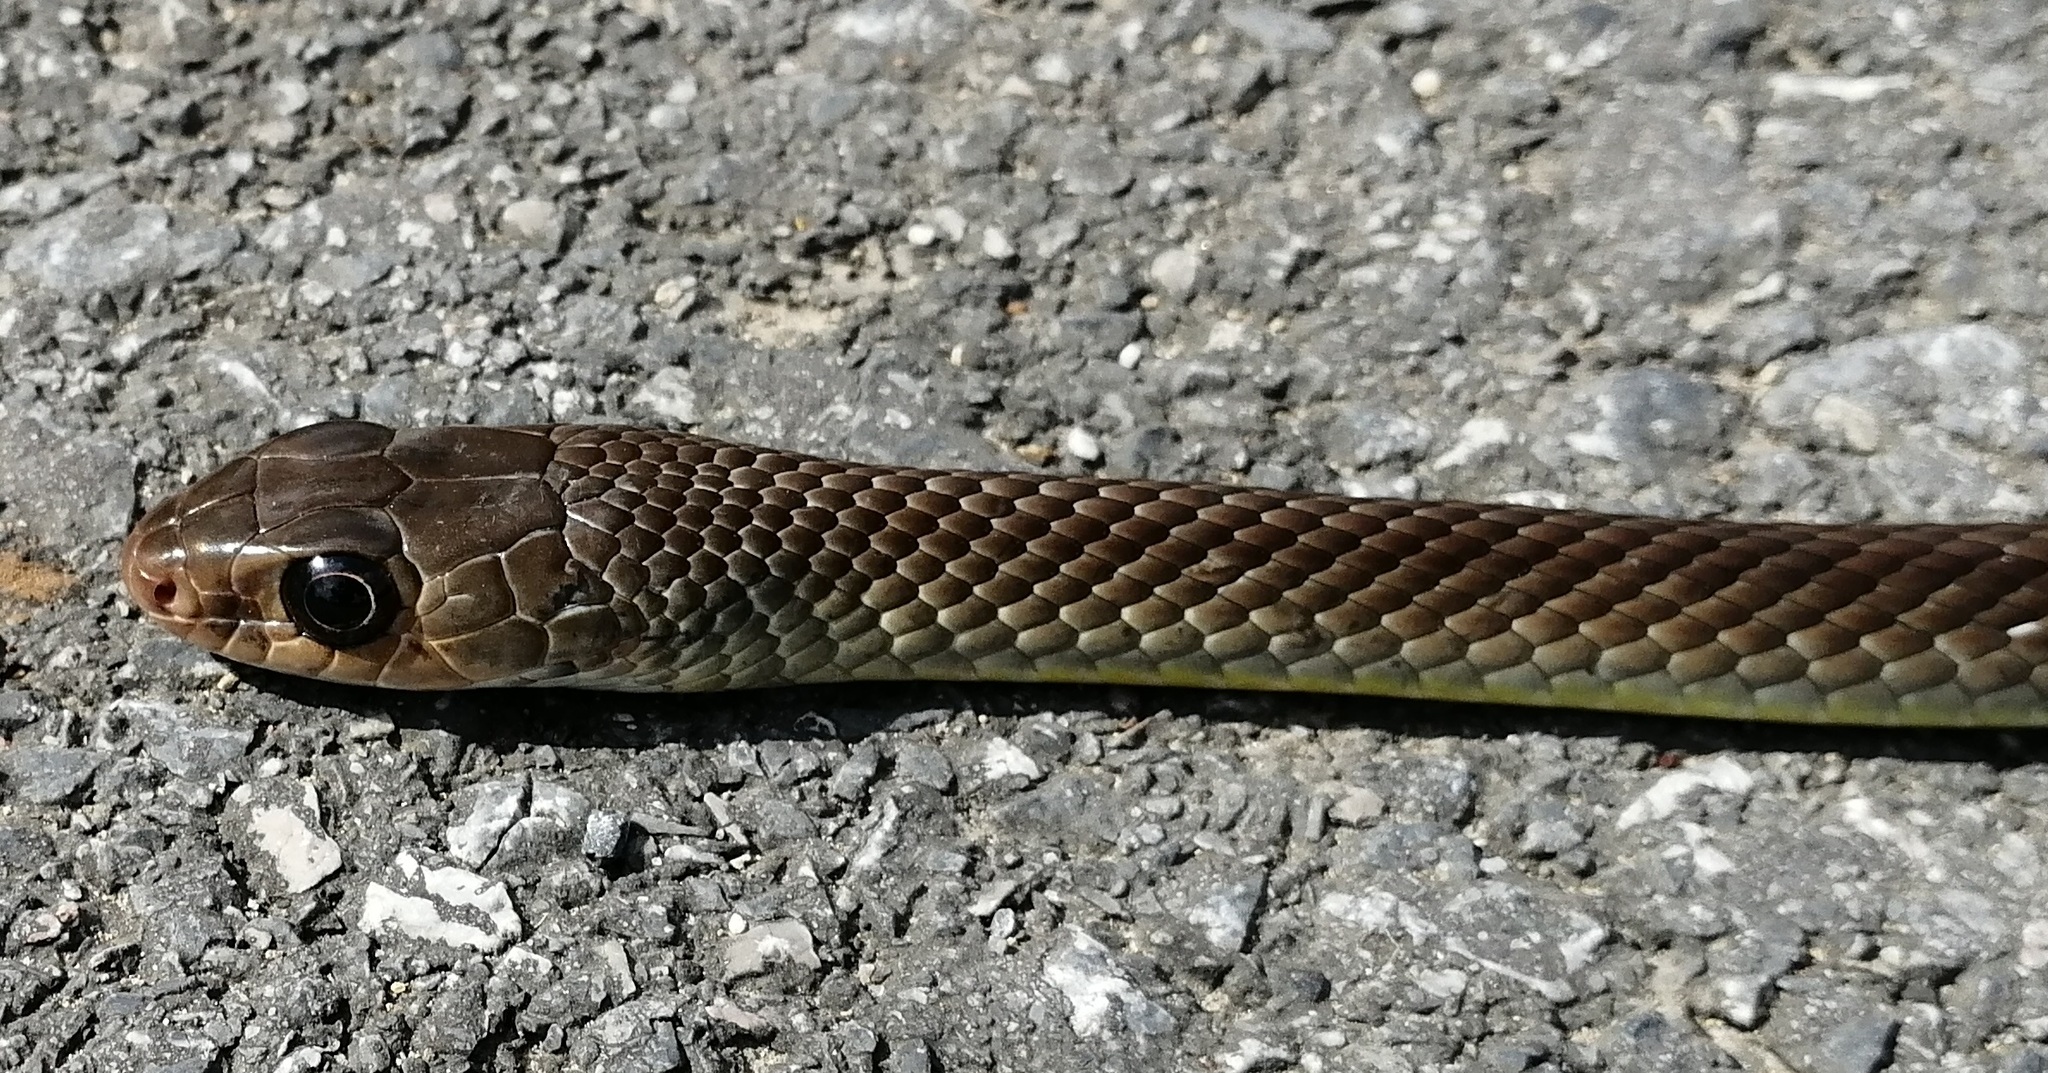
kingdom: Animalia
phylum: Chordata
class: Squamata
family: Colubridae
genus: Ptyas
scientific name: Ptyas korros
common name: Indo-chinese rat snake
